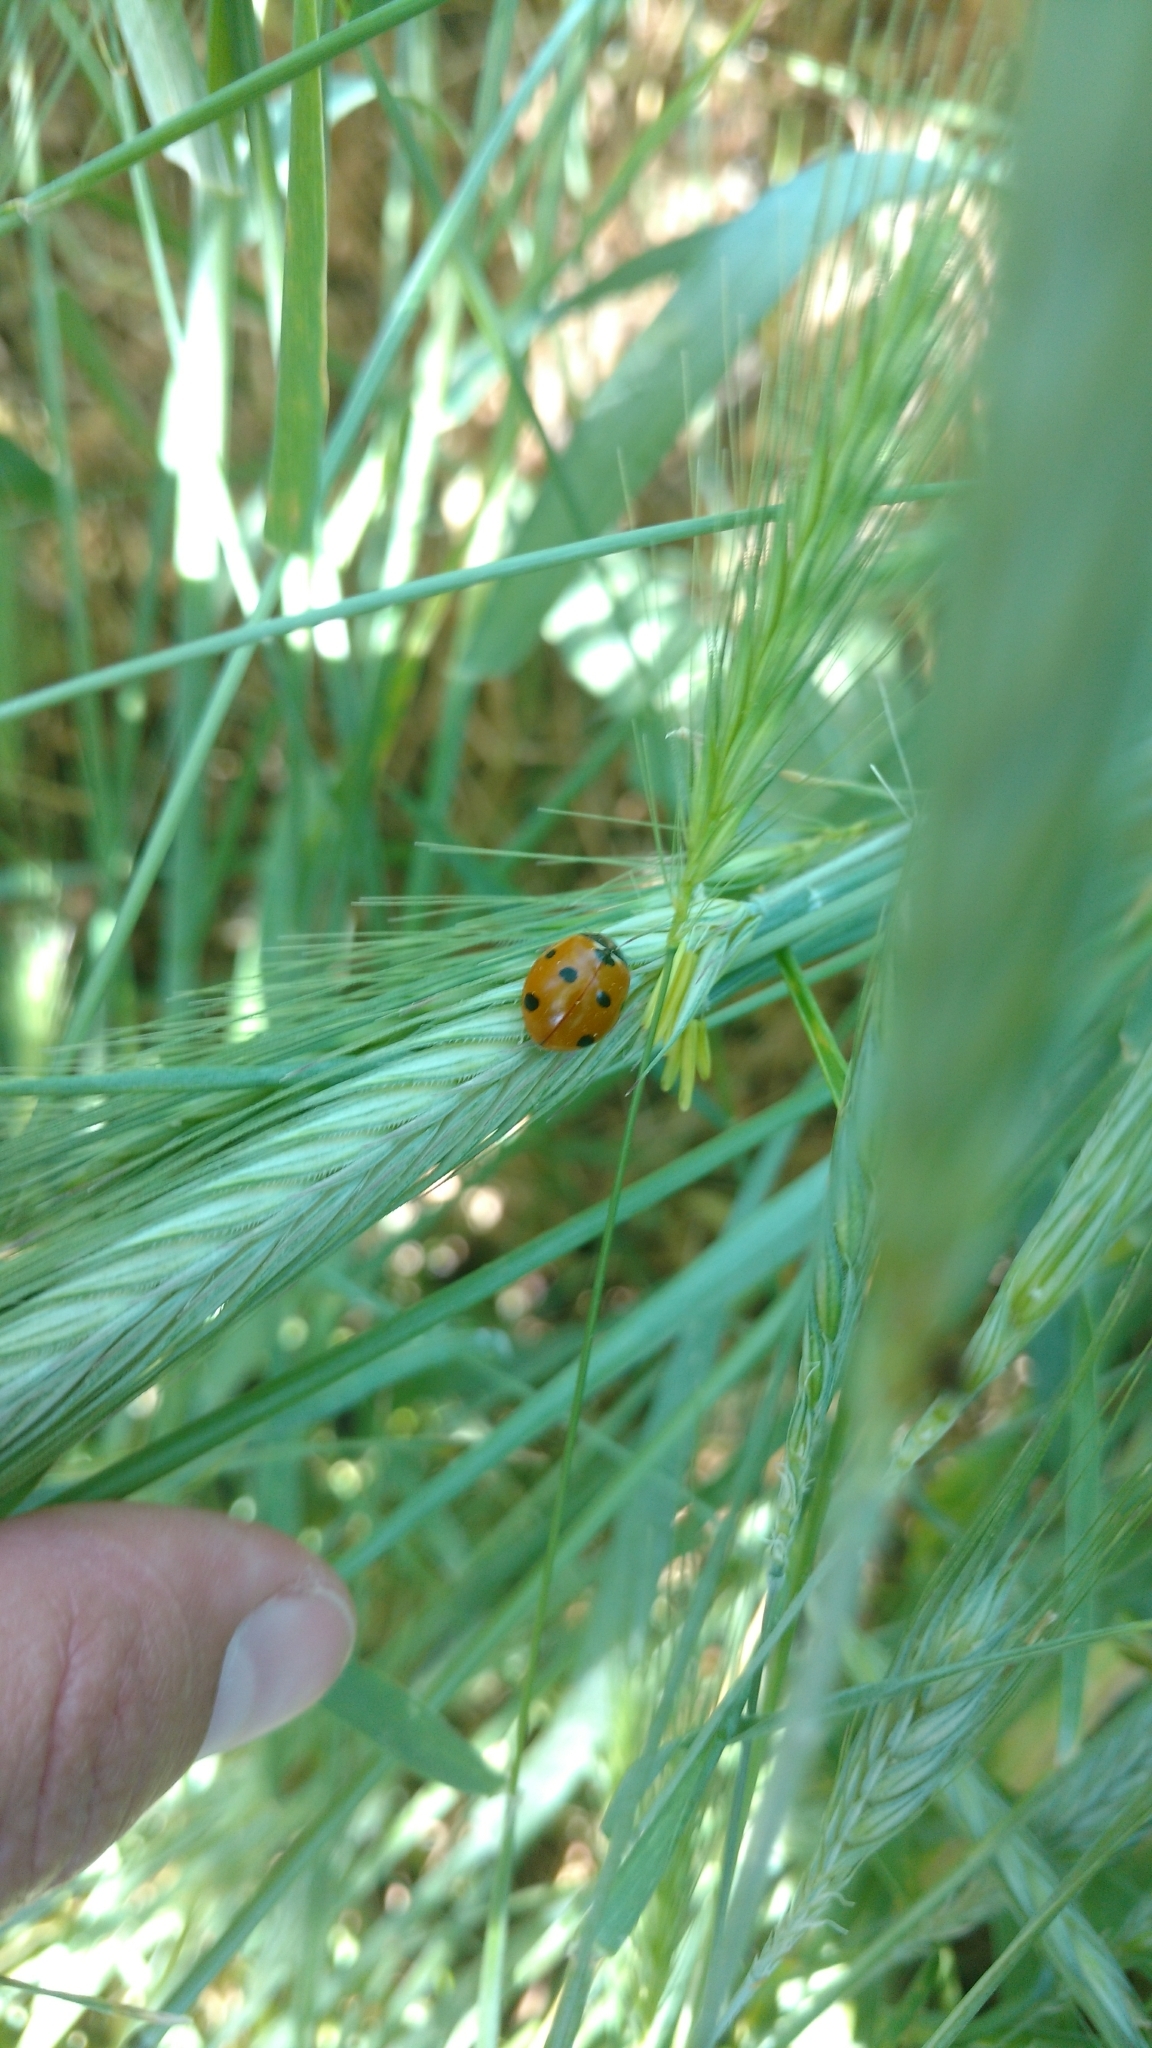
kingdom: Animalia
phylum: Arthropoda
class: Insecta
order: Coleoptera
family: Coccinellidae
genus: Coccinella
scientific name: Coccinella septempunctata
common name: Sevenspotted lady beetle
